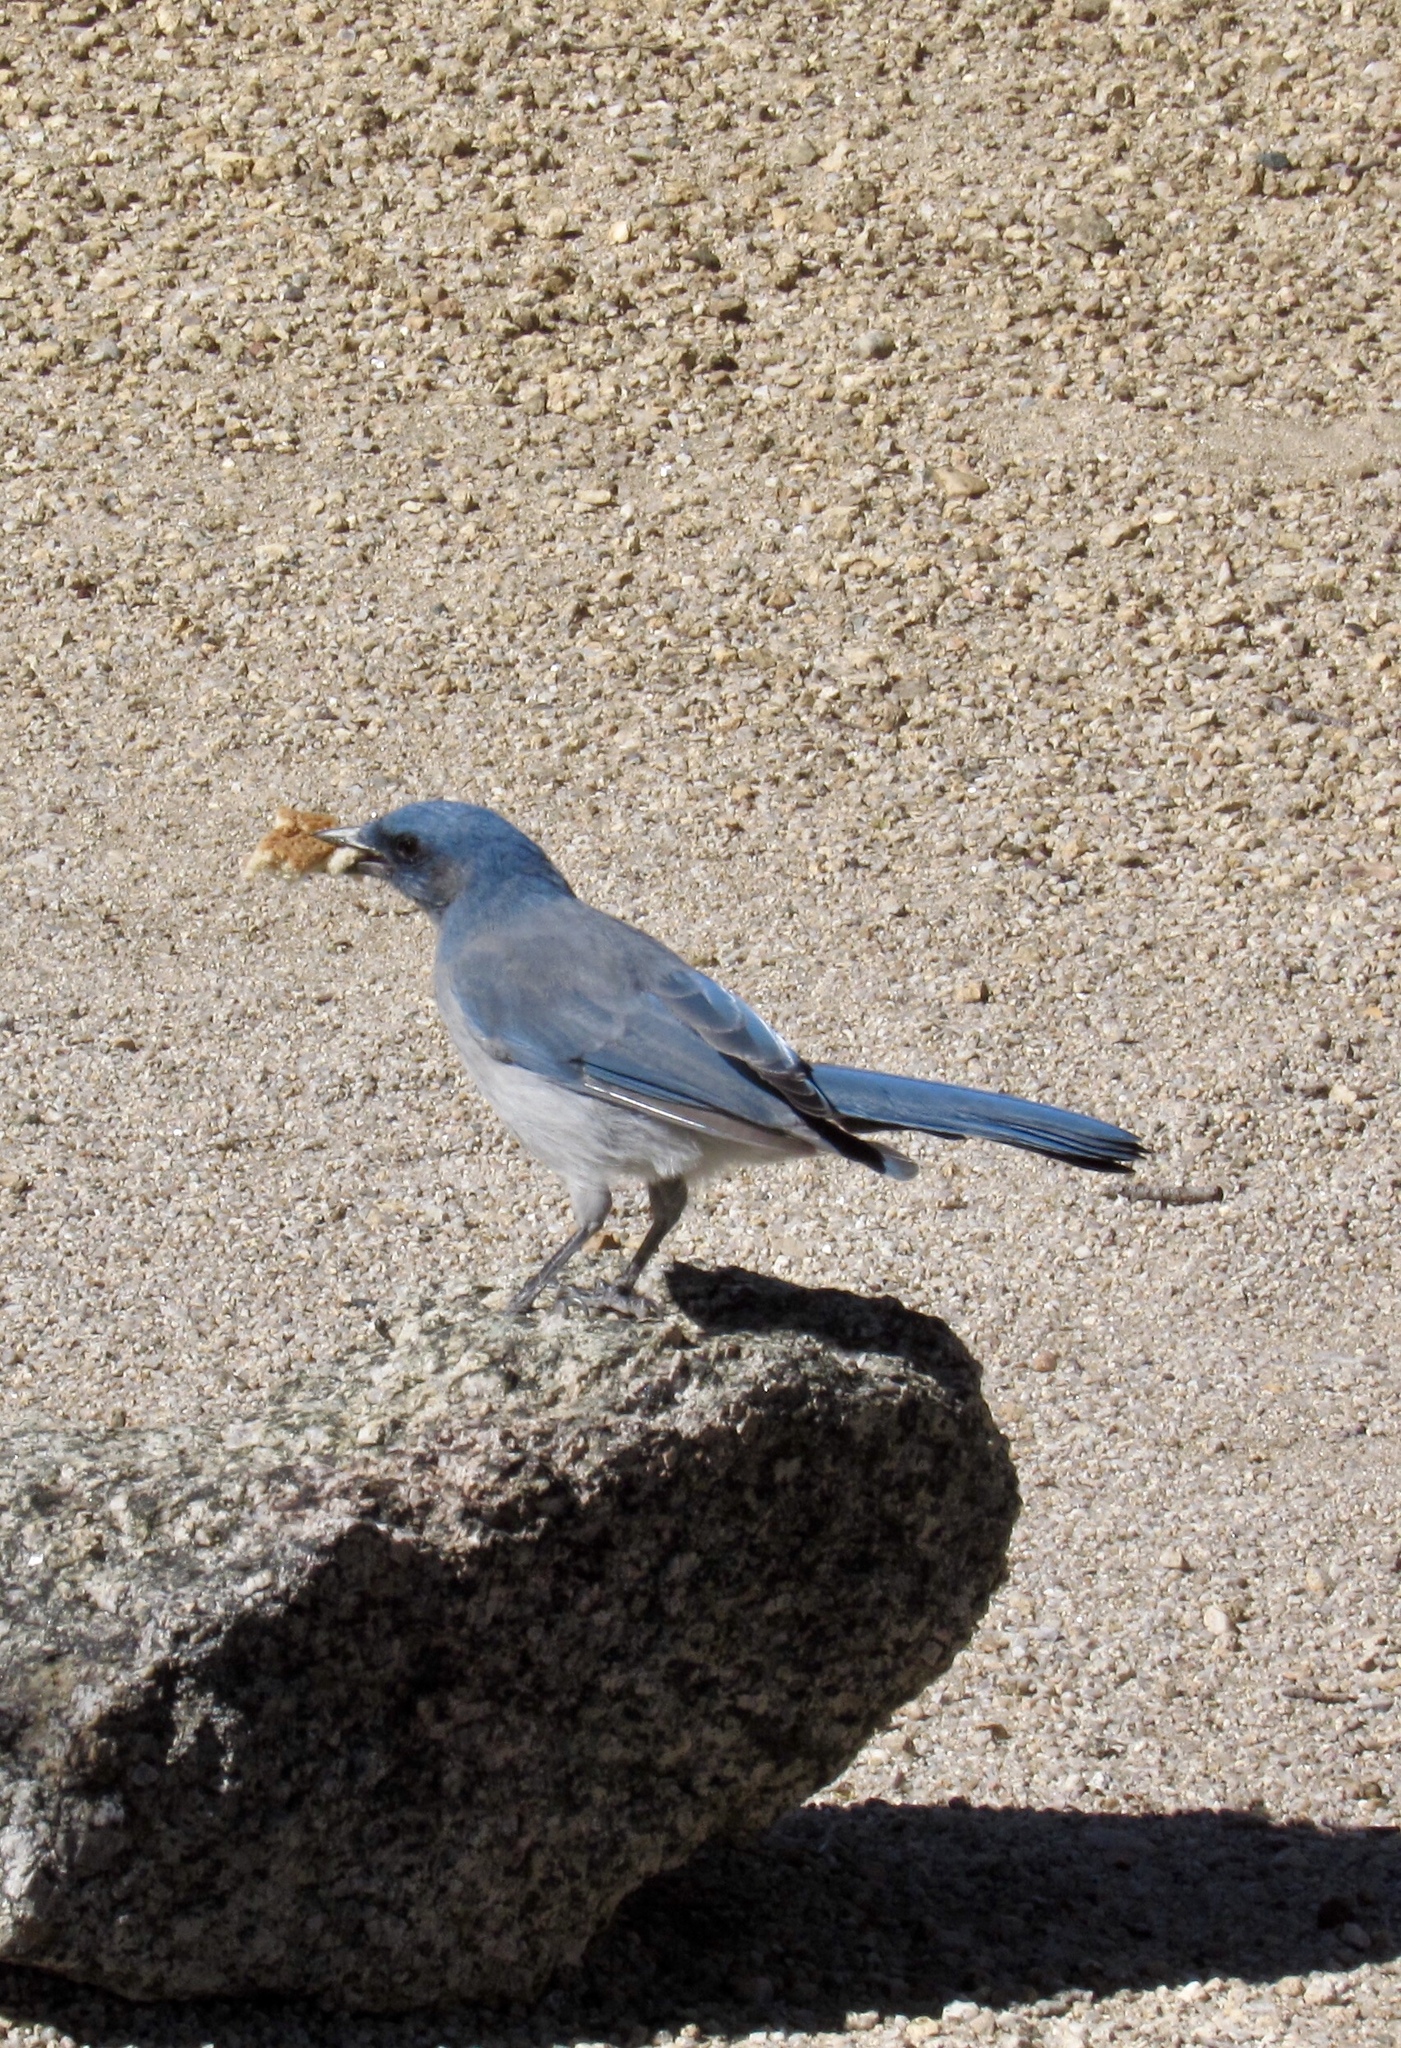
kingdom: Animalia
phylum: Chordata
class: Aves
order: Passeriformes
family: Corvidae
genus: Aphelocoma
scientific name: Aphelocoma wollweberi
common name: Mexican jay
